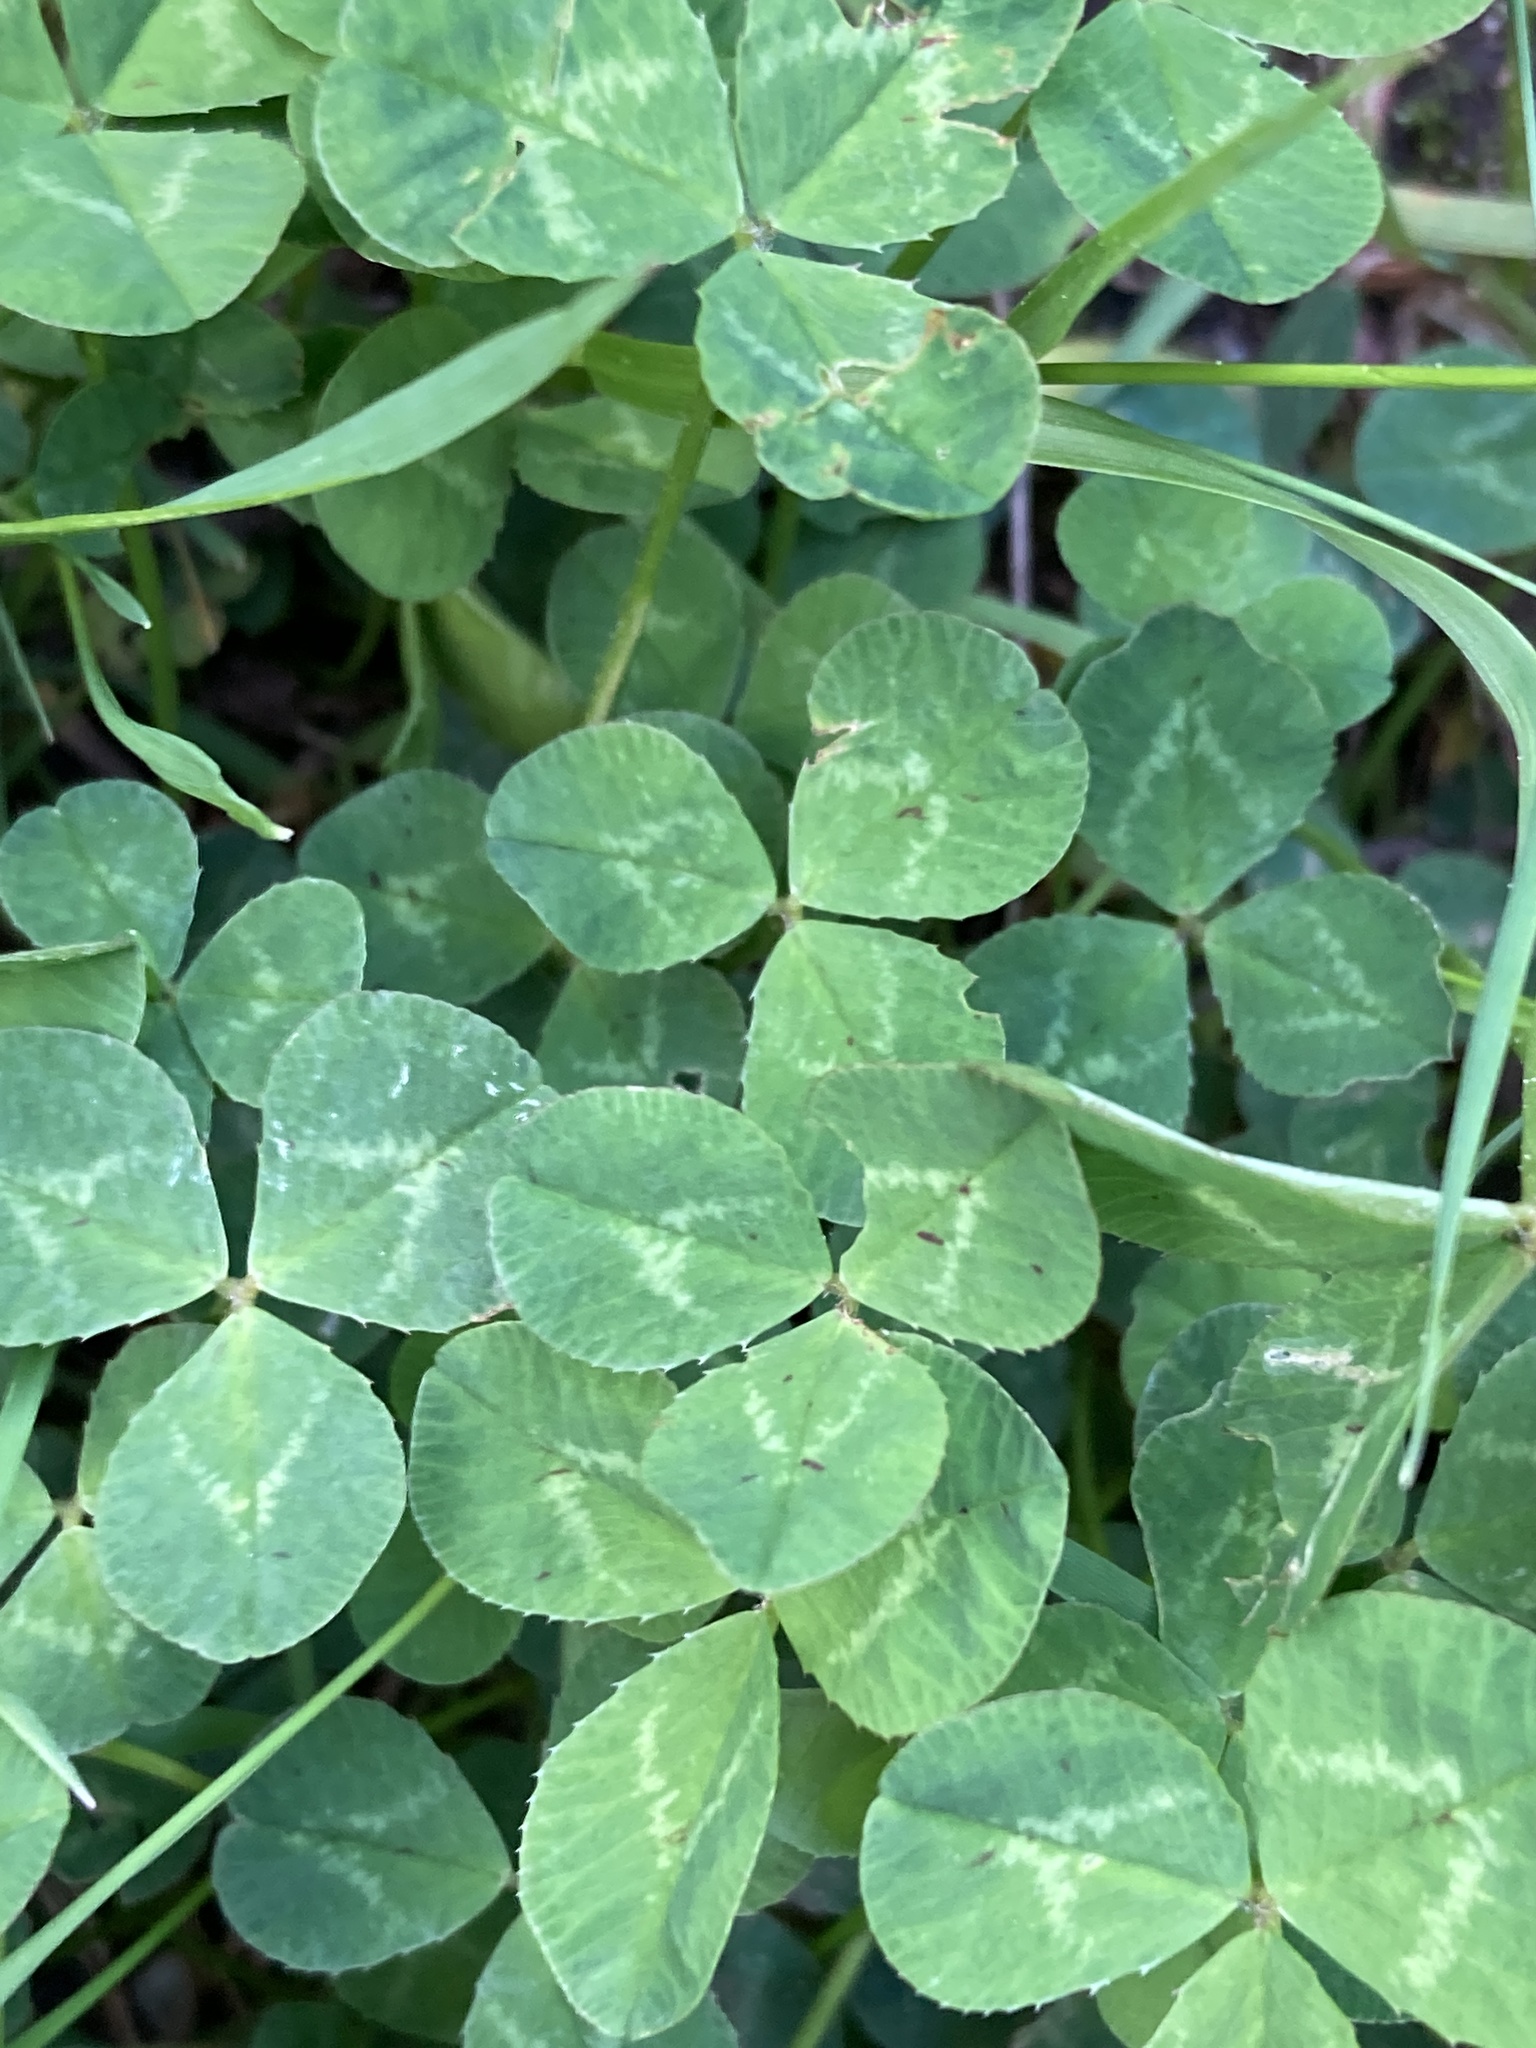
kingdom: Plantae
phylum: Tracheophyta
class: Magnoliopsida
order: Fabales
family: Fabaceae
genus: Trifolium
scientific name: Trifolium repens
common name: White clover
